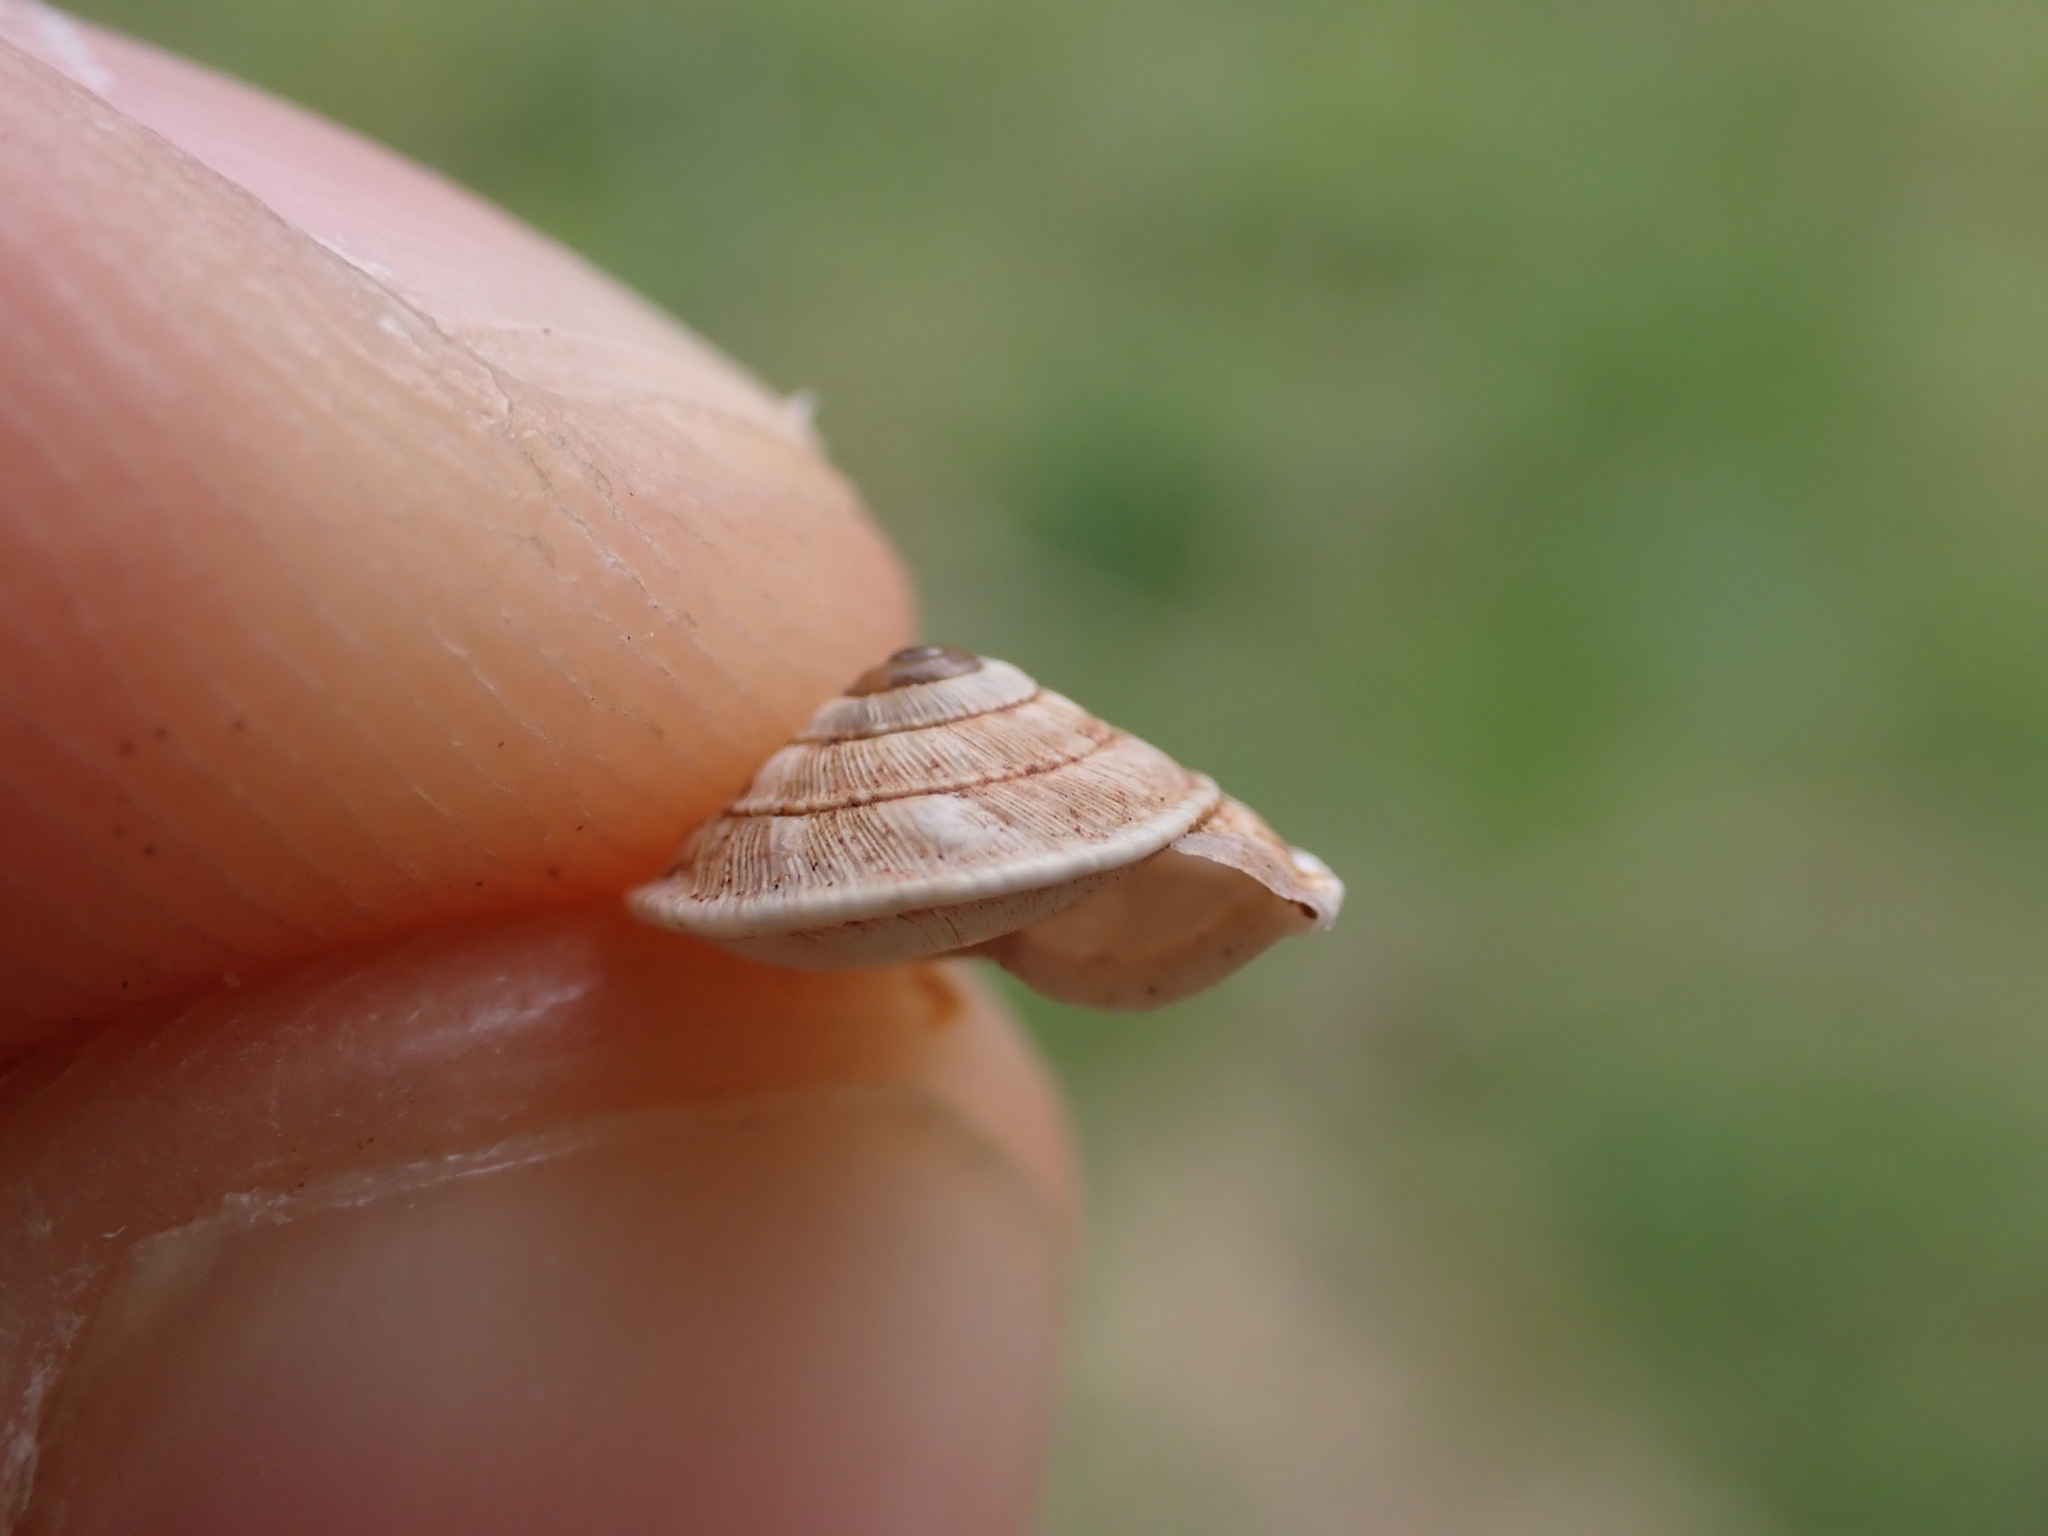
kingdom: Animalia
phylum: Mollusca
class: Gastropoda
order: Stylommatophora
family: Geomitridae
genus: Trochoidea
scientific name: Trochoidea elegans
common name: Elegant helicellid
